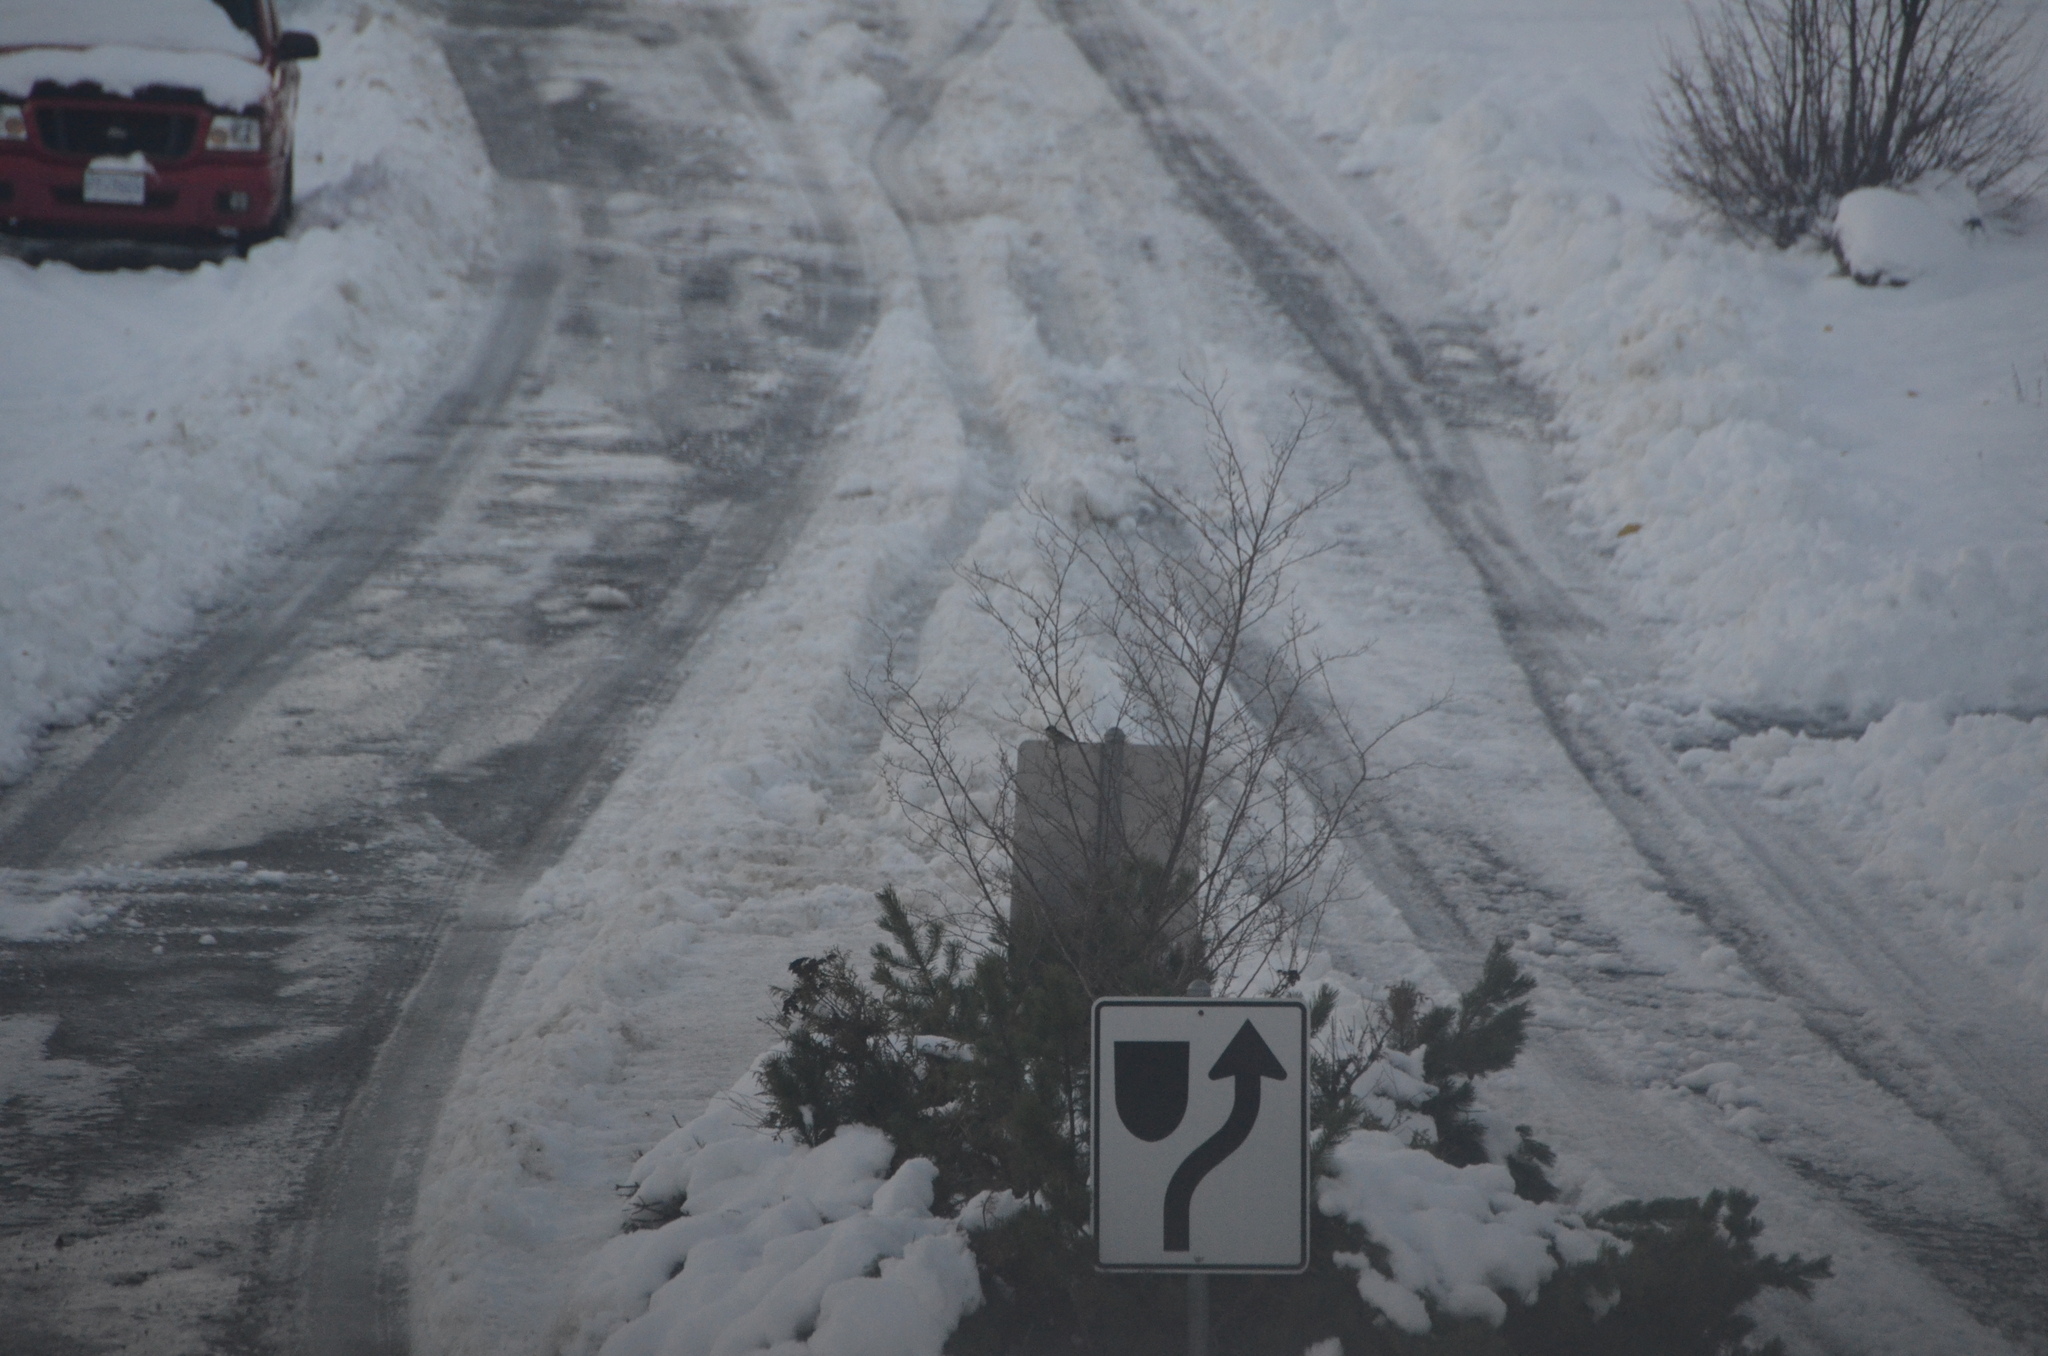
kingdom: Animalia
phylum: Chordata
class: Aves
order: Passeriformes
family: Passeridae
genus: Passer
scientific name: Passer domesticus
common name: House sparrow
